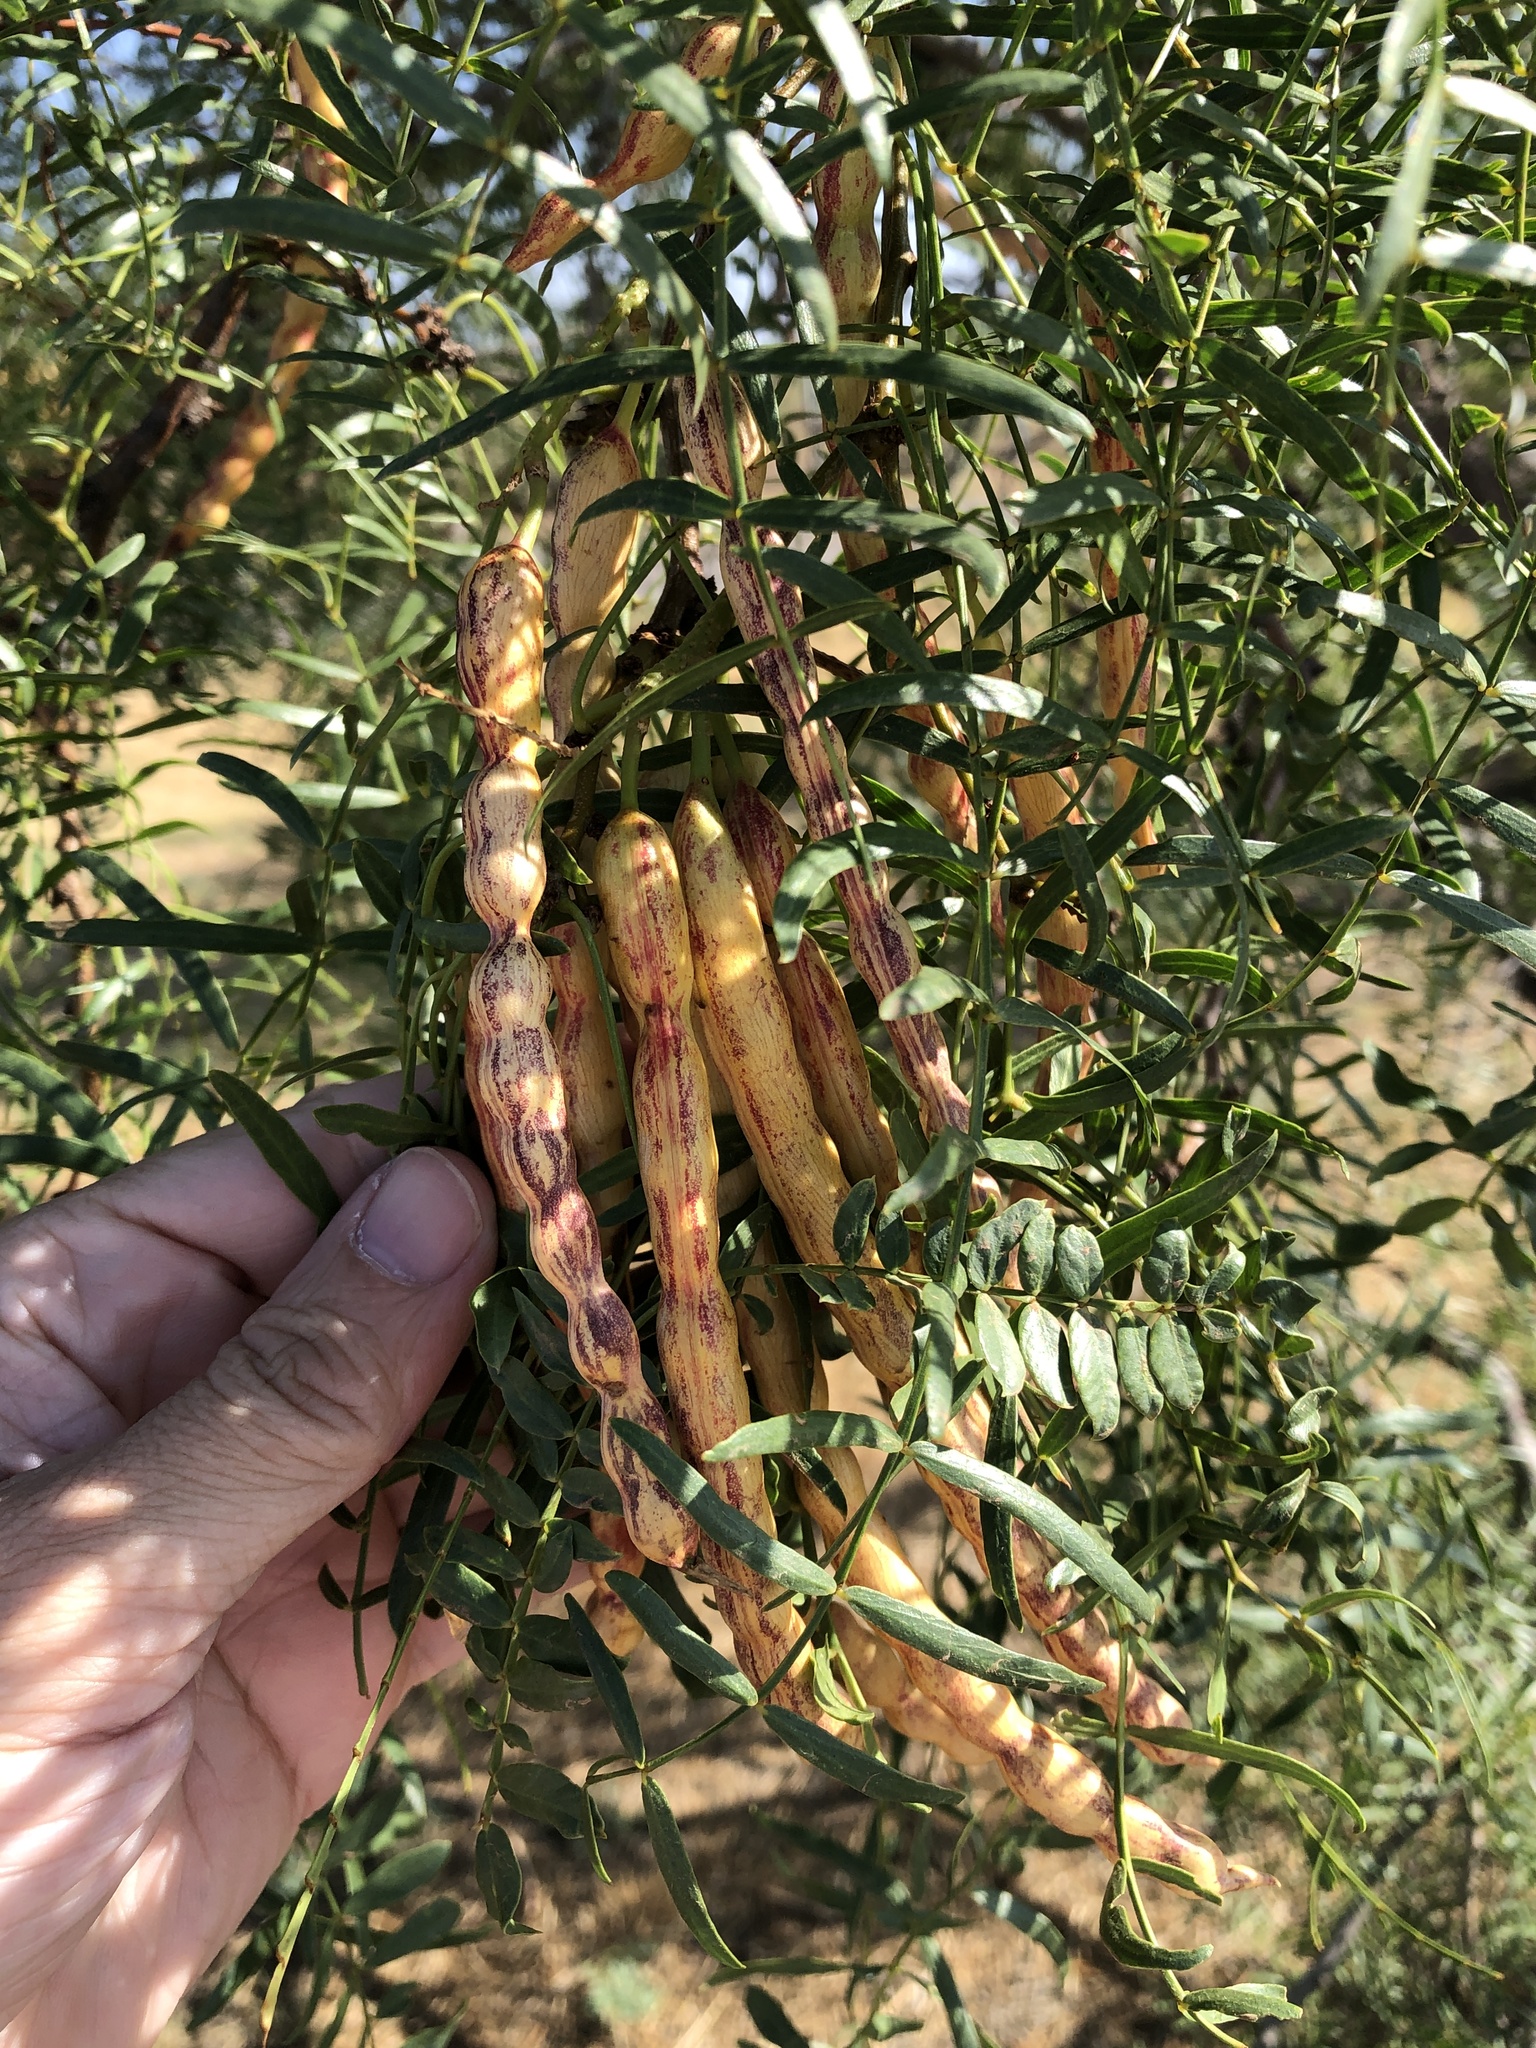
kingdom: Plantae
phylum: Tracheophyta
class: Magnoliopsida
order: Fabales
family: Fabaceae
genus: Prosopis
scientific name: Prosopis glandulosa
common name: Honey mesquite
